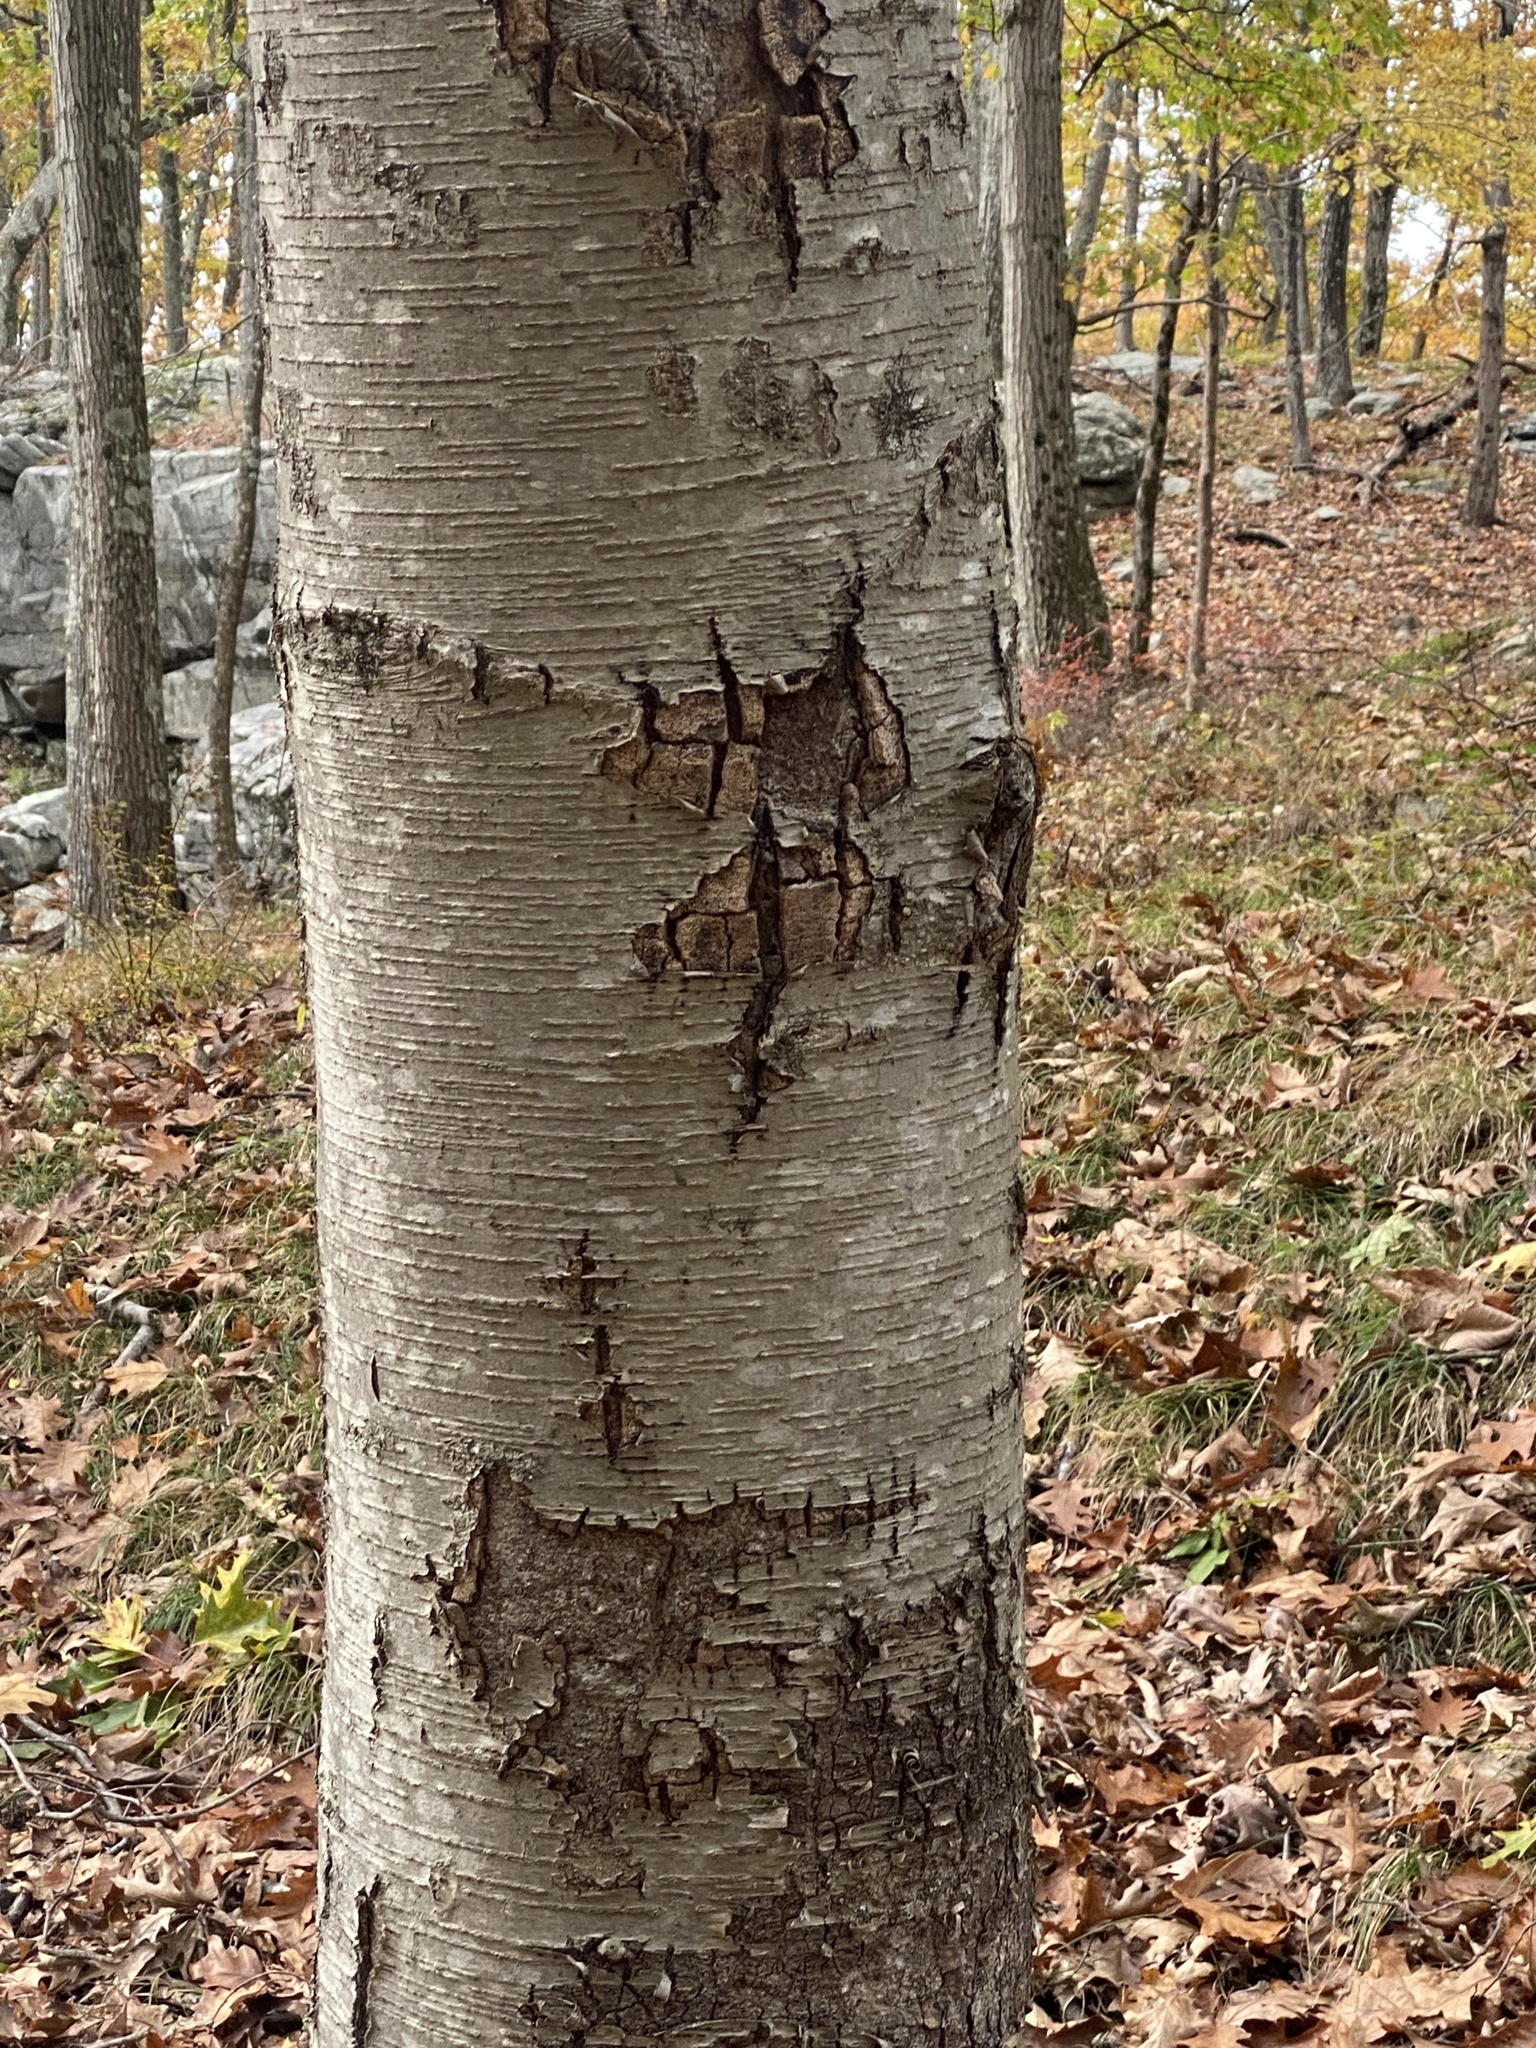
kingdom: Plantae
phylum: Tracheophyta
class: Magnoliopsida
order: Fagales
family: Betulaceae
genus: Betula
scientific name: Betula lenta
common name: Black birch
